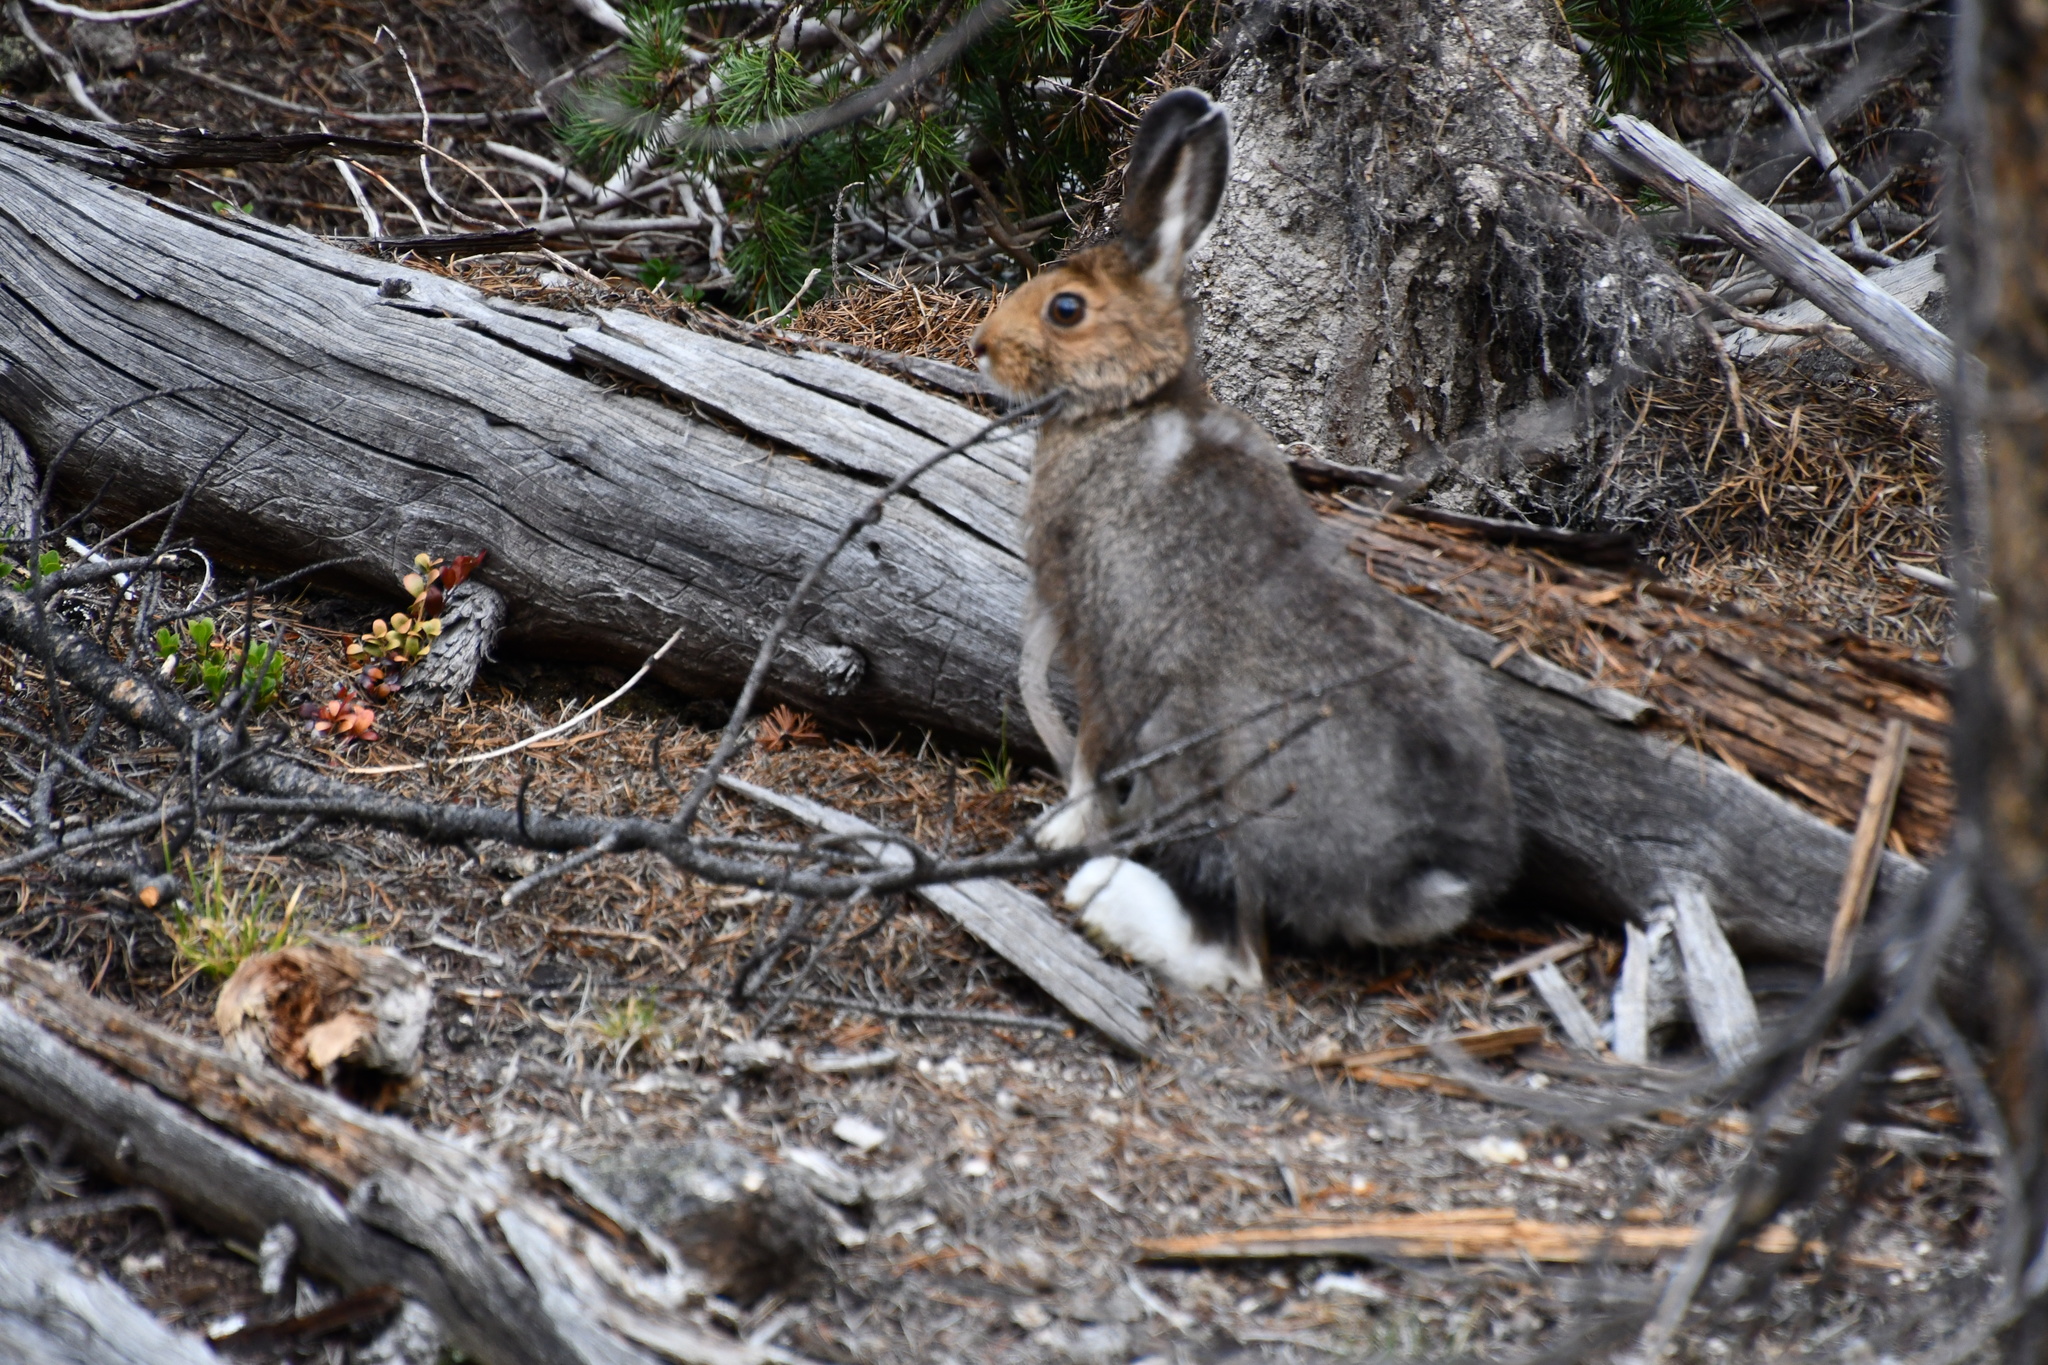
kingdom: Animalia
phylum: Chordata
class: Mammalia
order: Lagomorpha
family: Leporidae
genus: Lepus
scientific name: Lepus americanus
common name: Snowshoe hare
